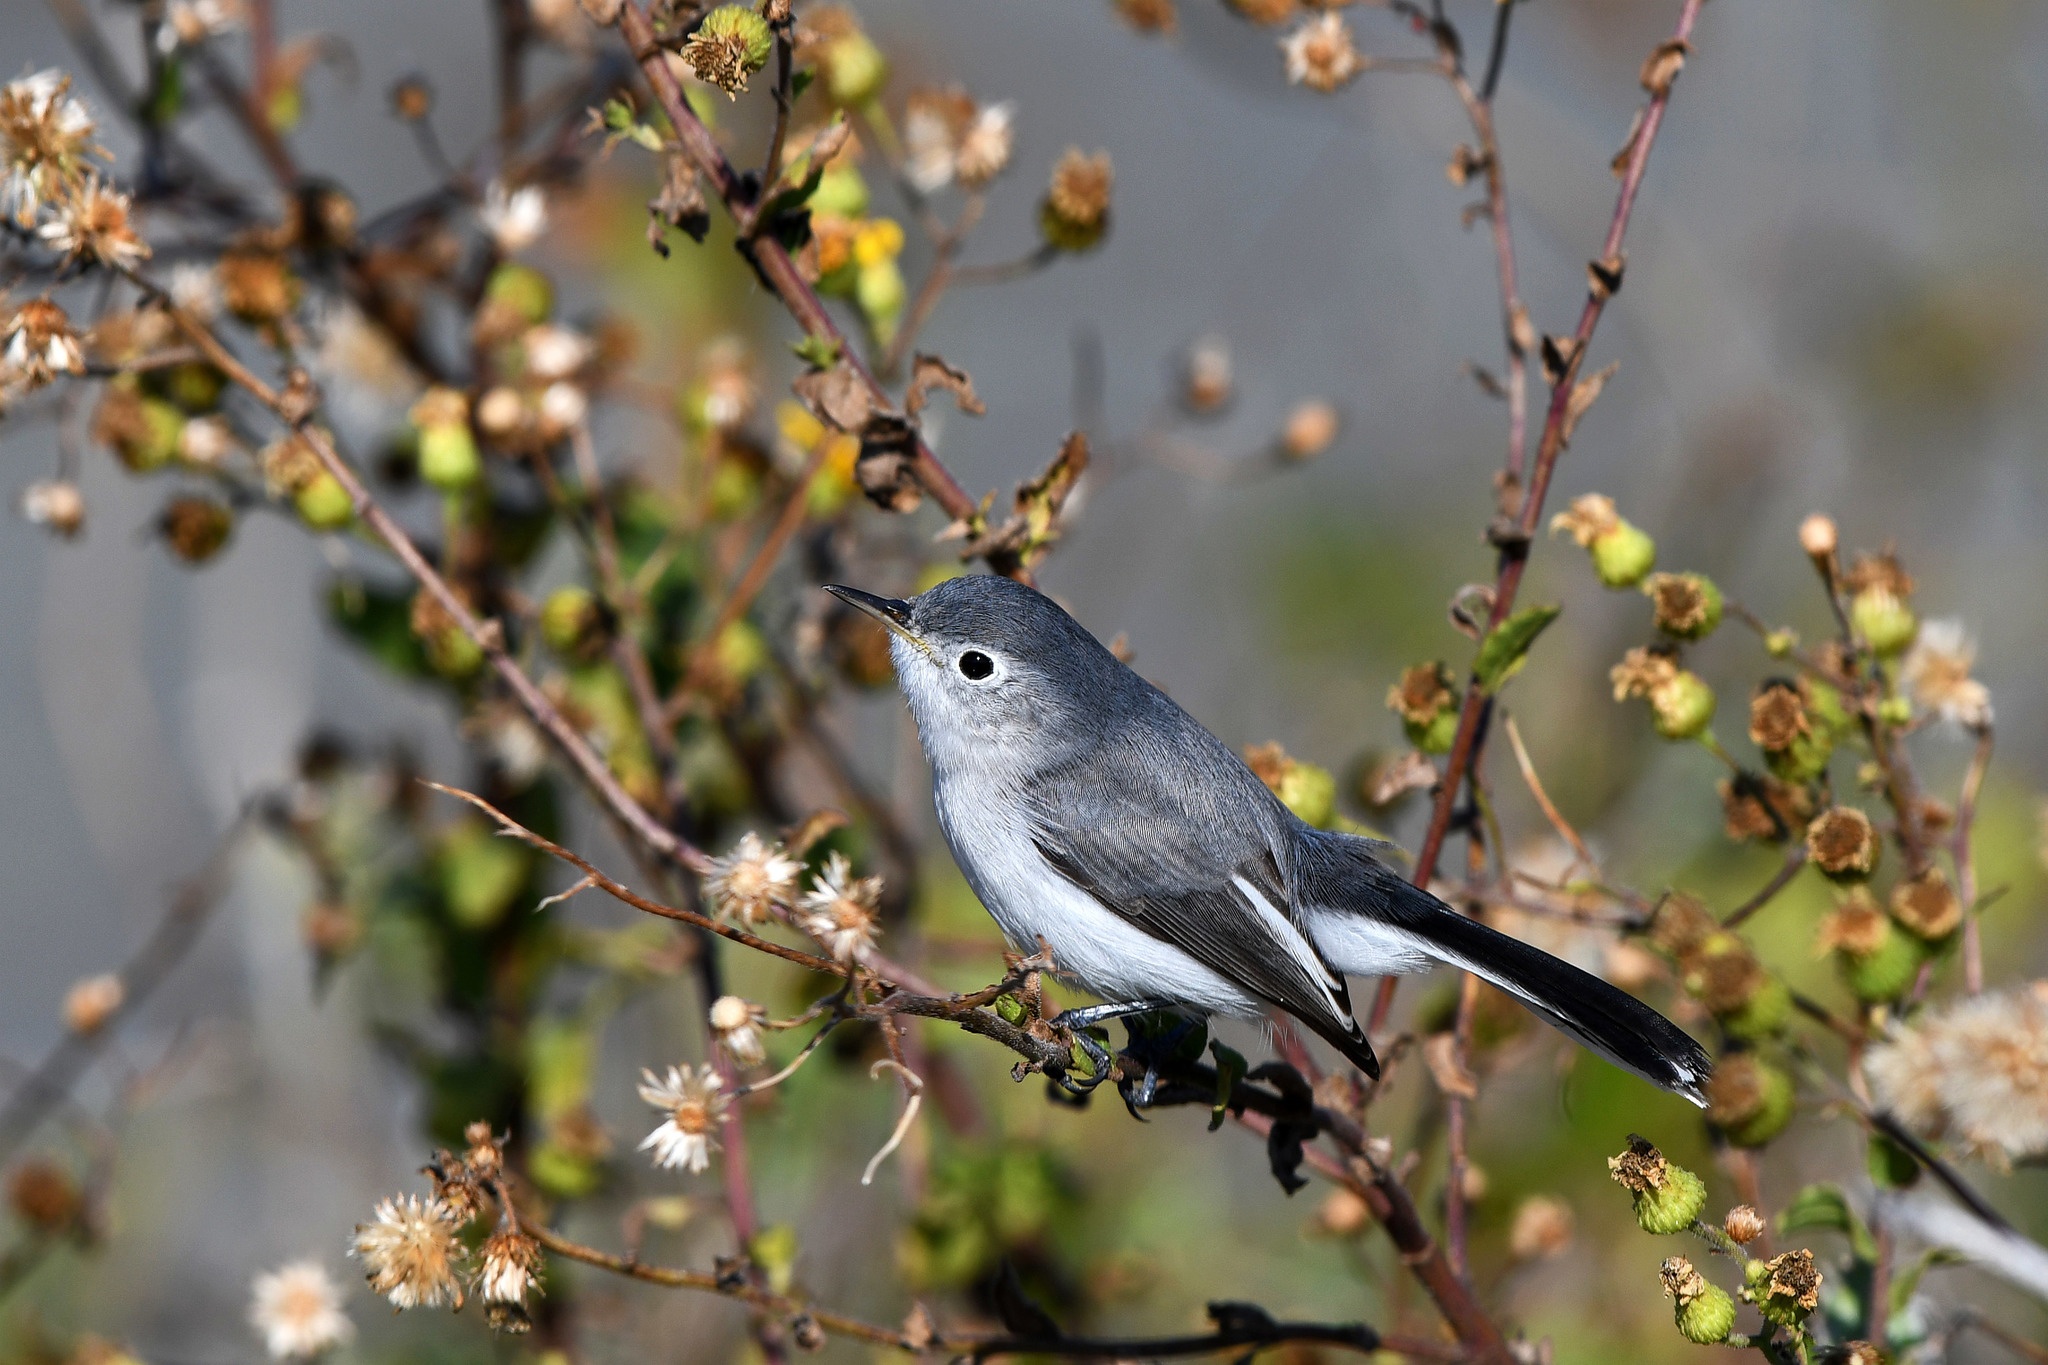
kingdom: Animalia
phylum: Chordata
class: Aves
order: Passeriformes
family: Polioptilidae
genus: Polioptila
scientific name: Polioptila caerulea
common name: Blue-gray gnatcatcher
